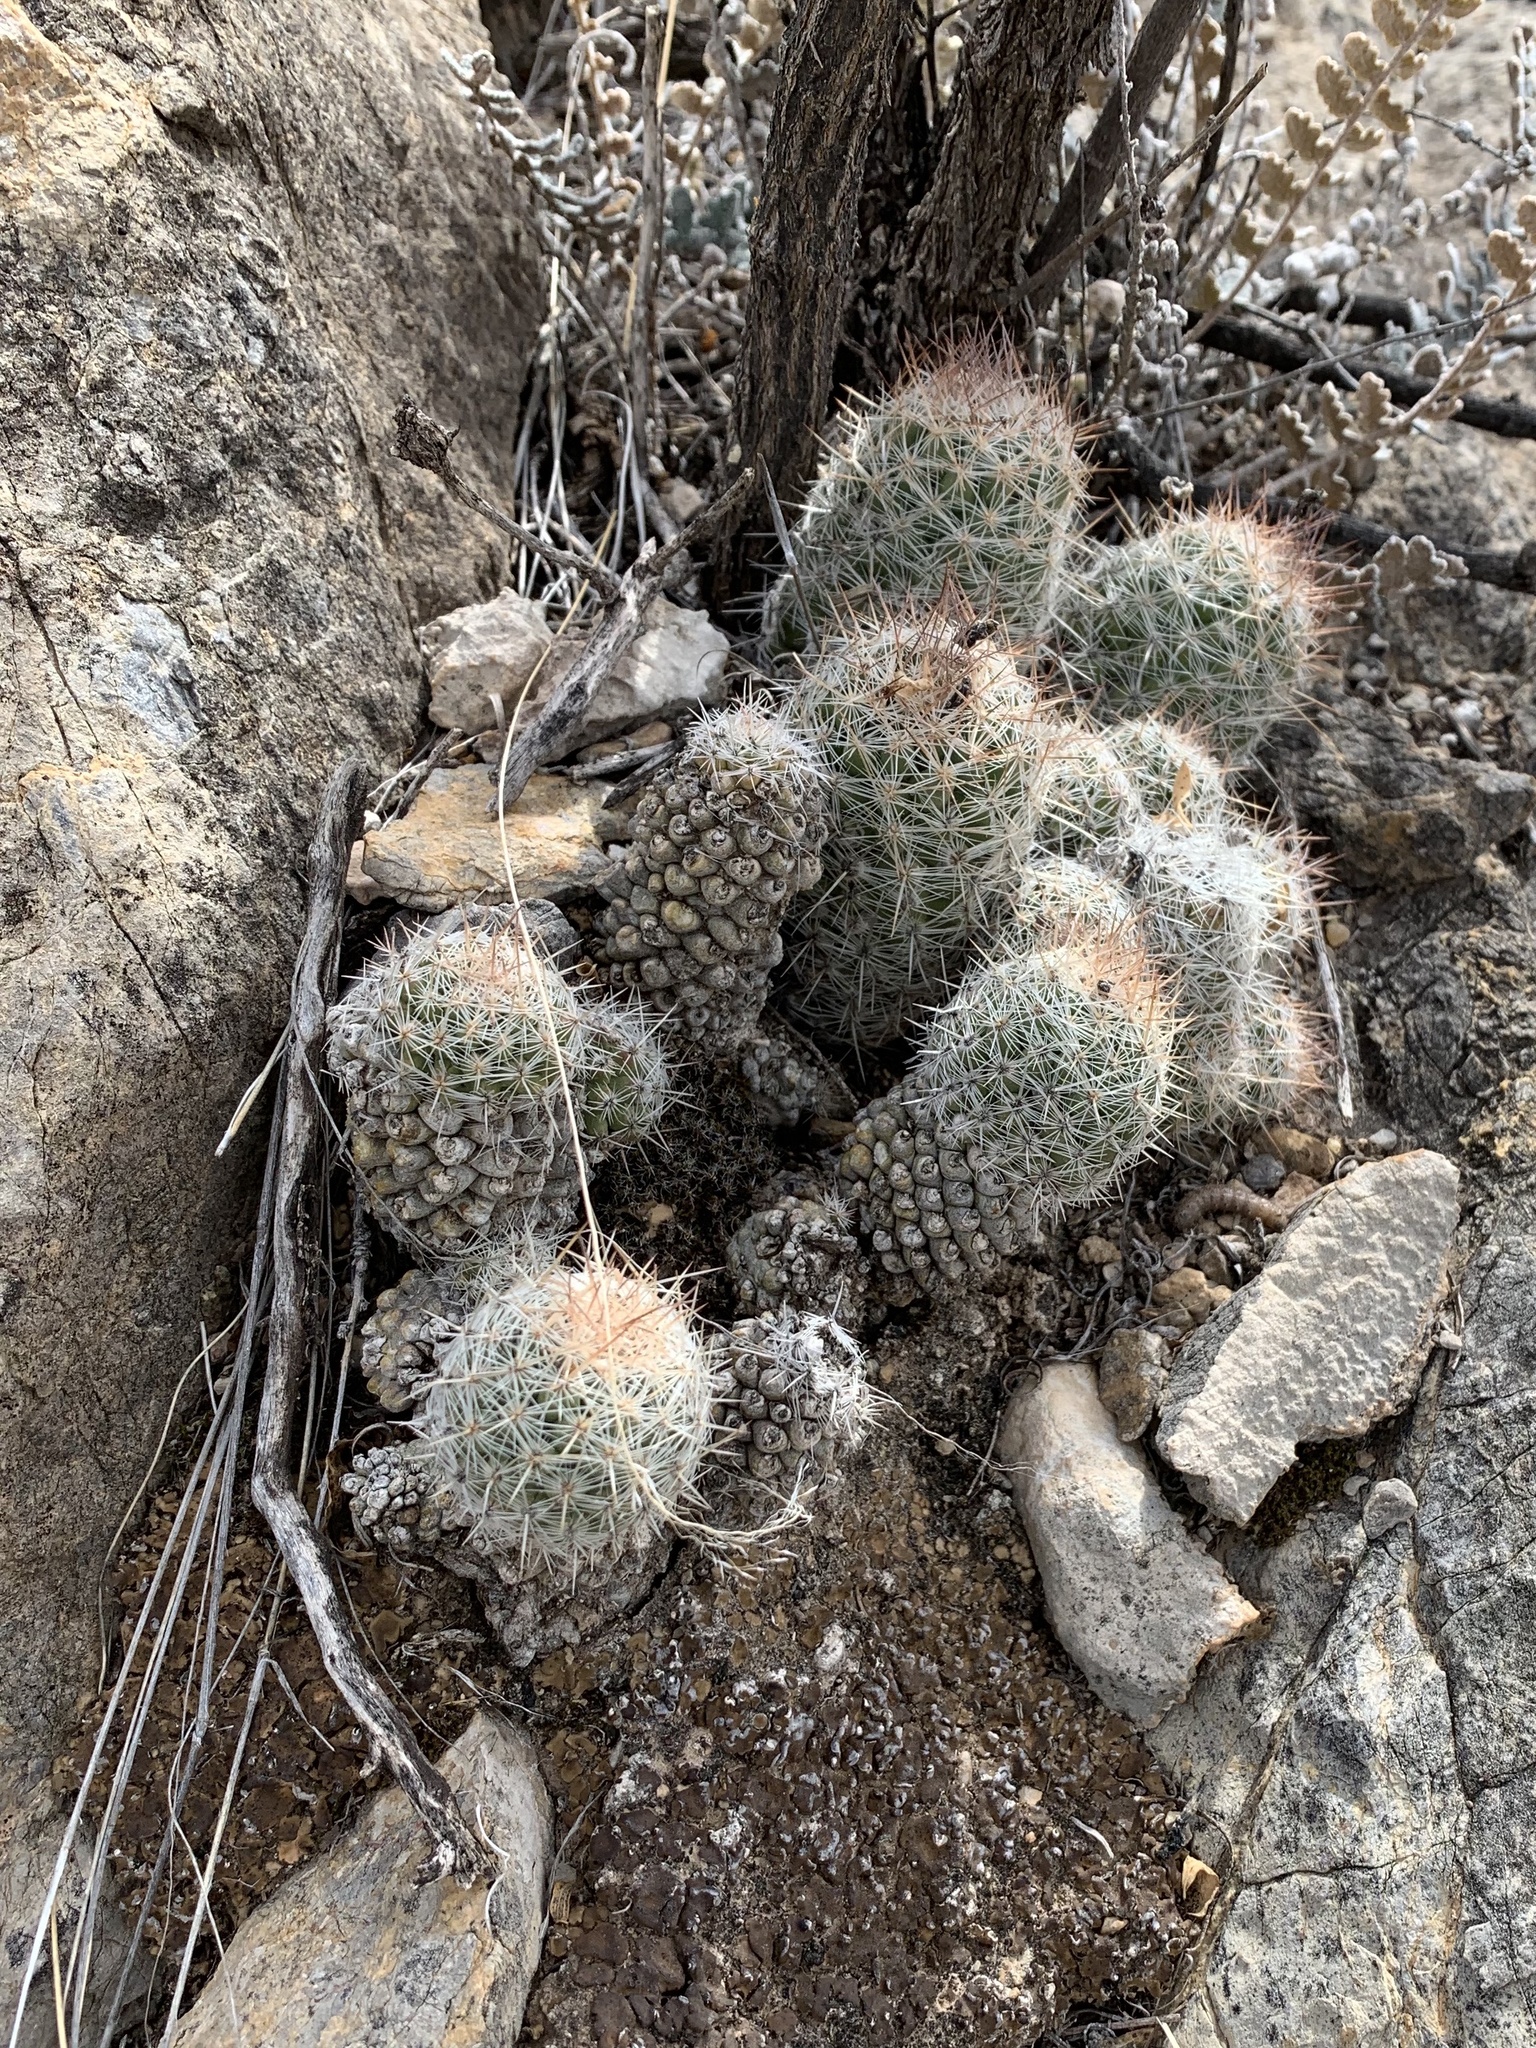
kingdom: Plantae
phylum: Tracheophyta
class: Magnoliopsida
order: Caryophyllales
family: Cactaceae
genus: Pelecyphora
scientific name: Pelecyphora tuberculosa
